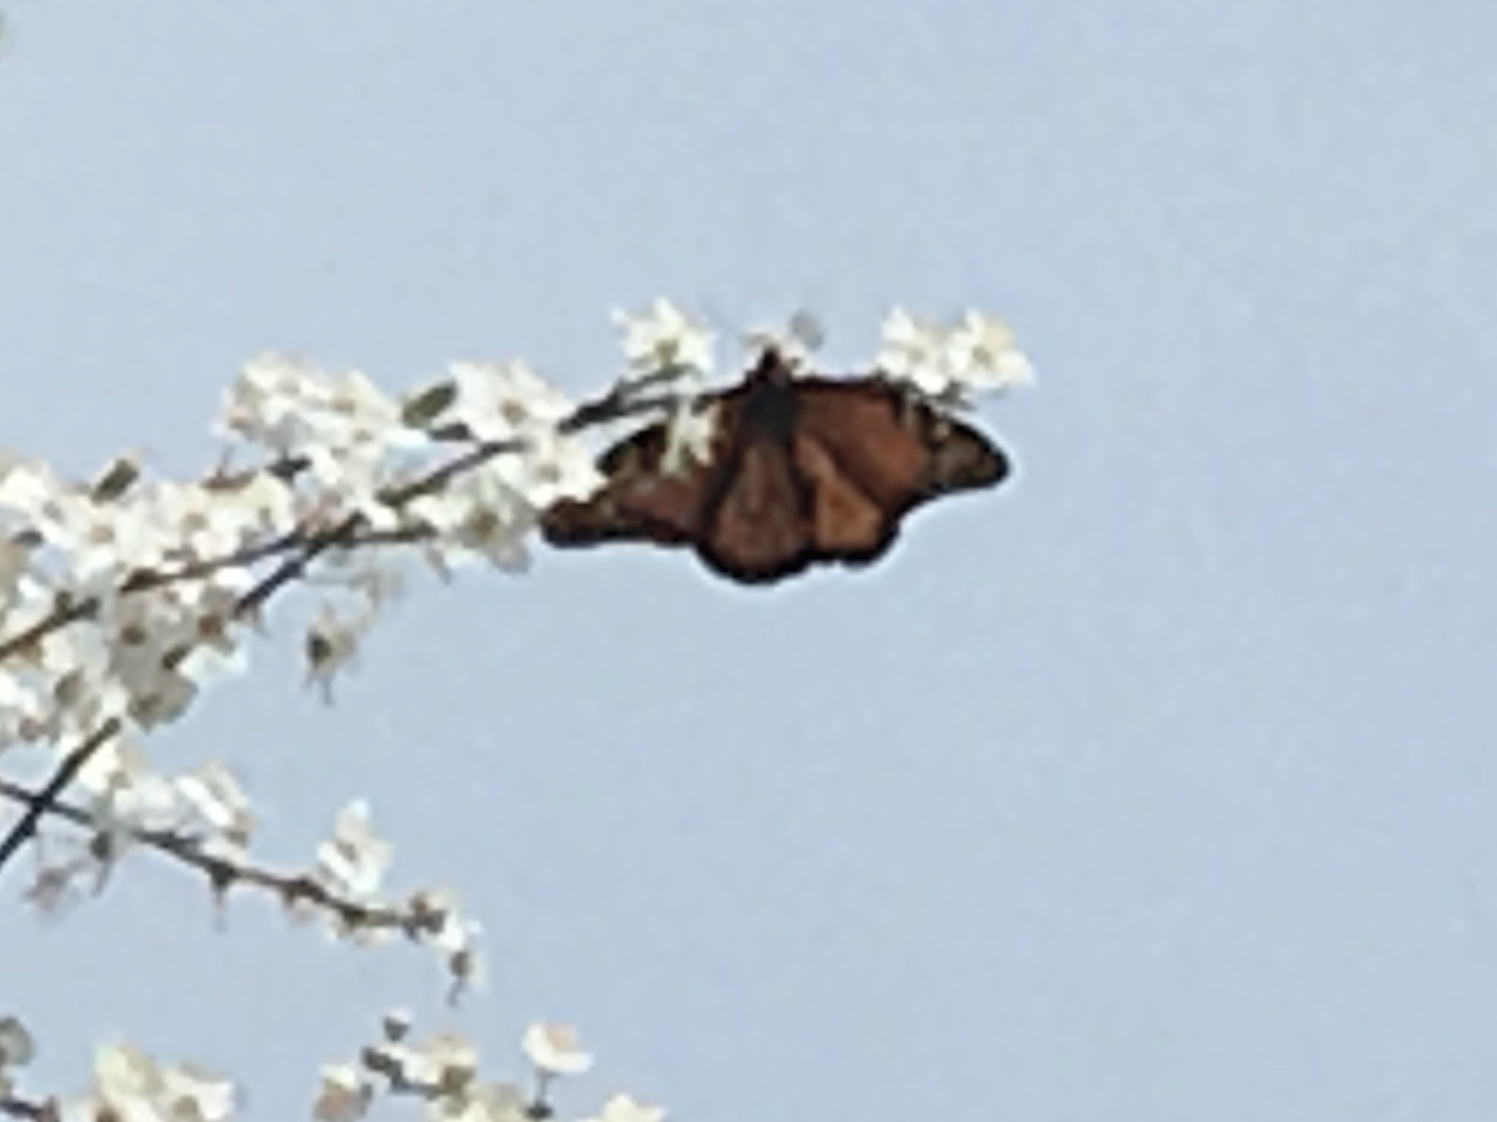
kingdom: Animalia
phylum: Arthropoda
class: Insecta
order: Lepidoptera
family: Nymphalidae
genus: Danaus
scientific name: Danaus plexippus
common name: Monarch
